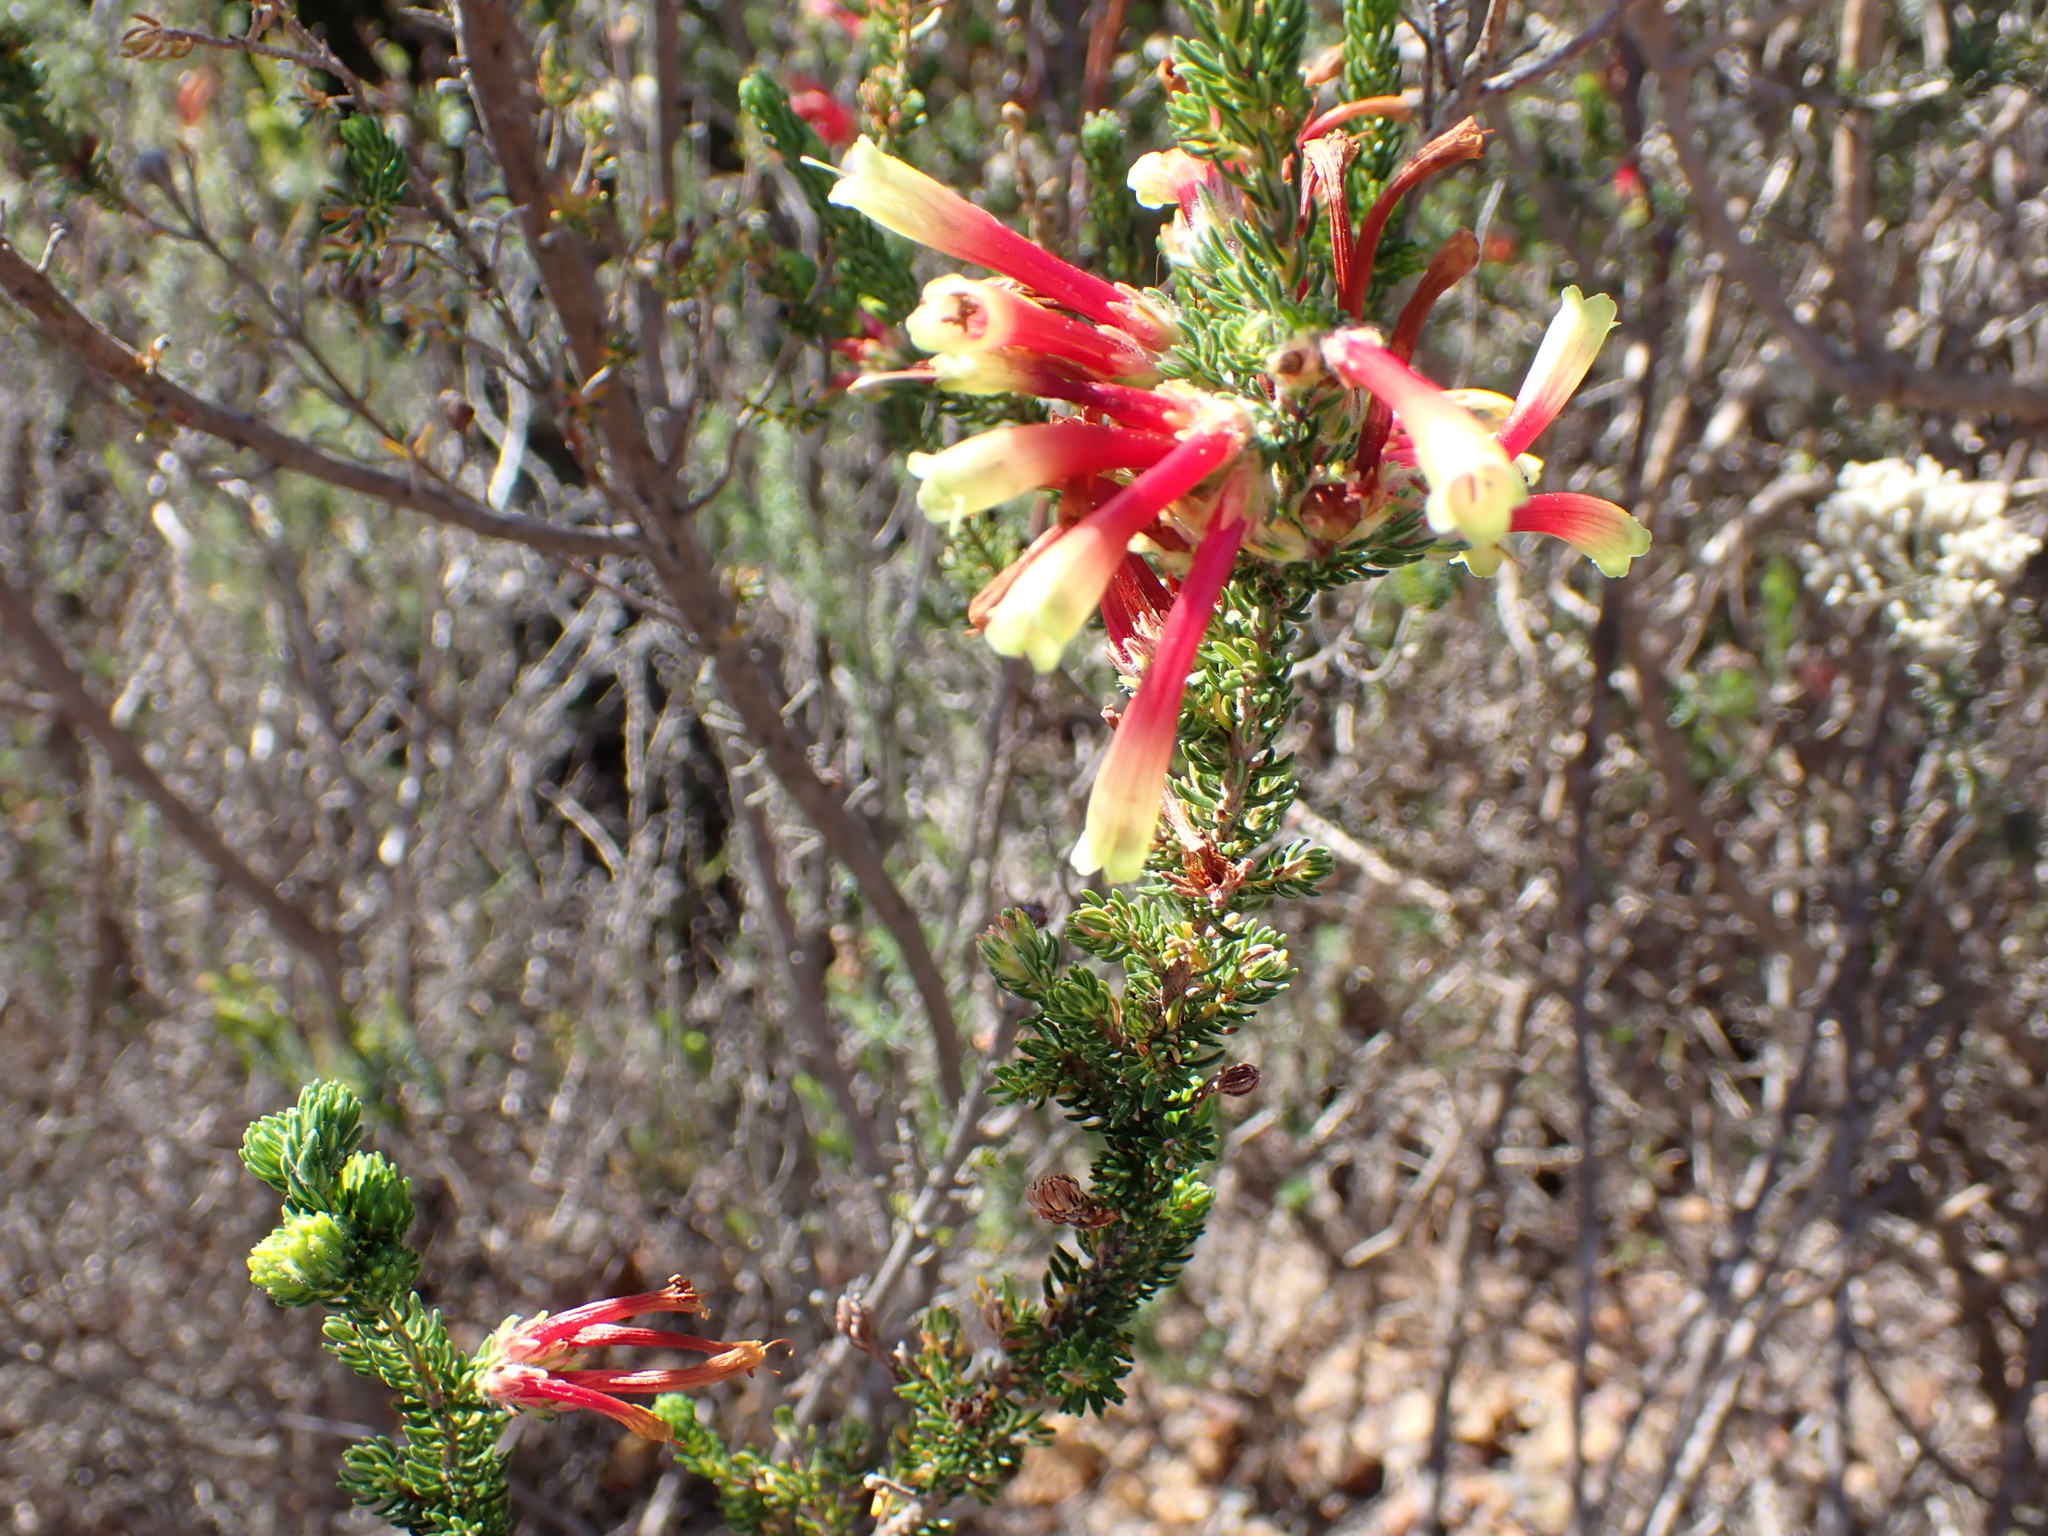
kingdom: Plantae
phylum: Tracheophyta
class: Magnoliopsida
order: Ericales
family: Ericaceae
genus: Erica
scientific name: Erica unicolor
